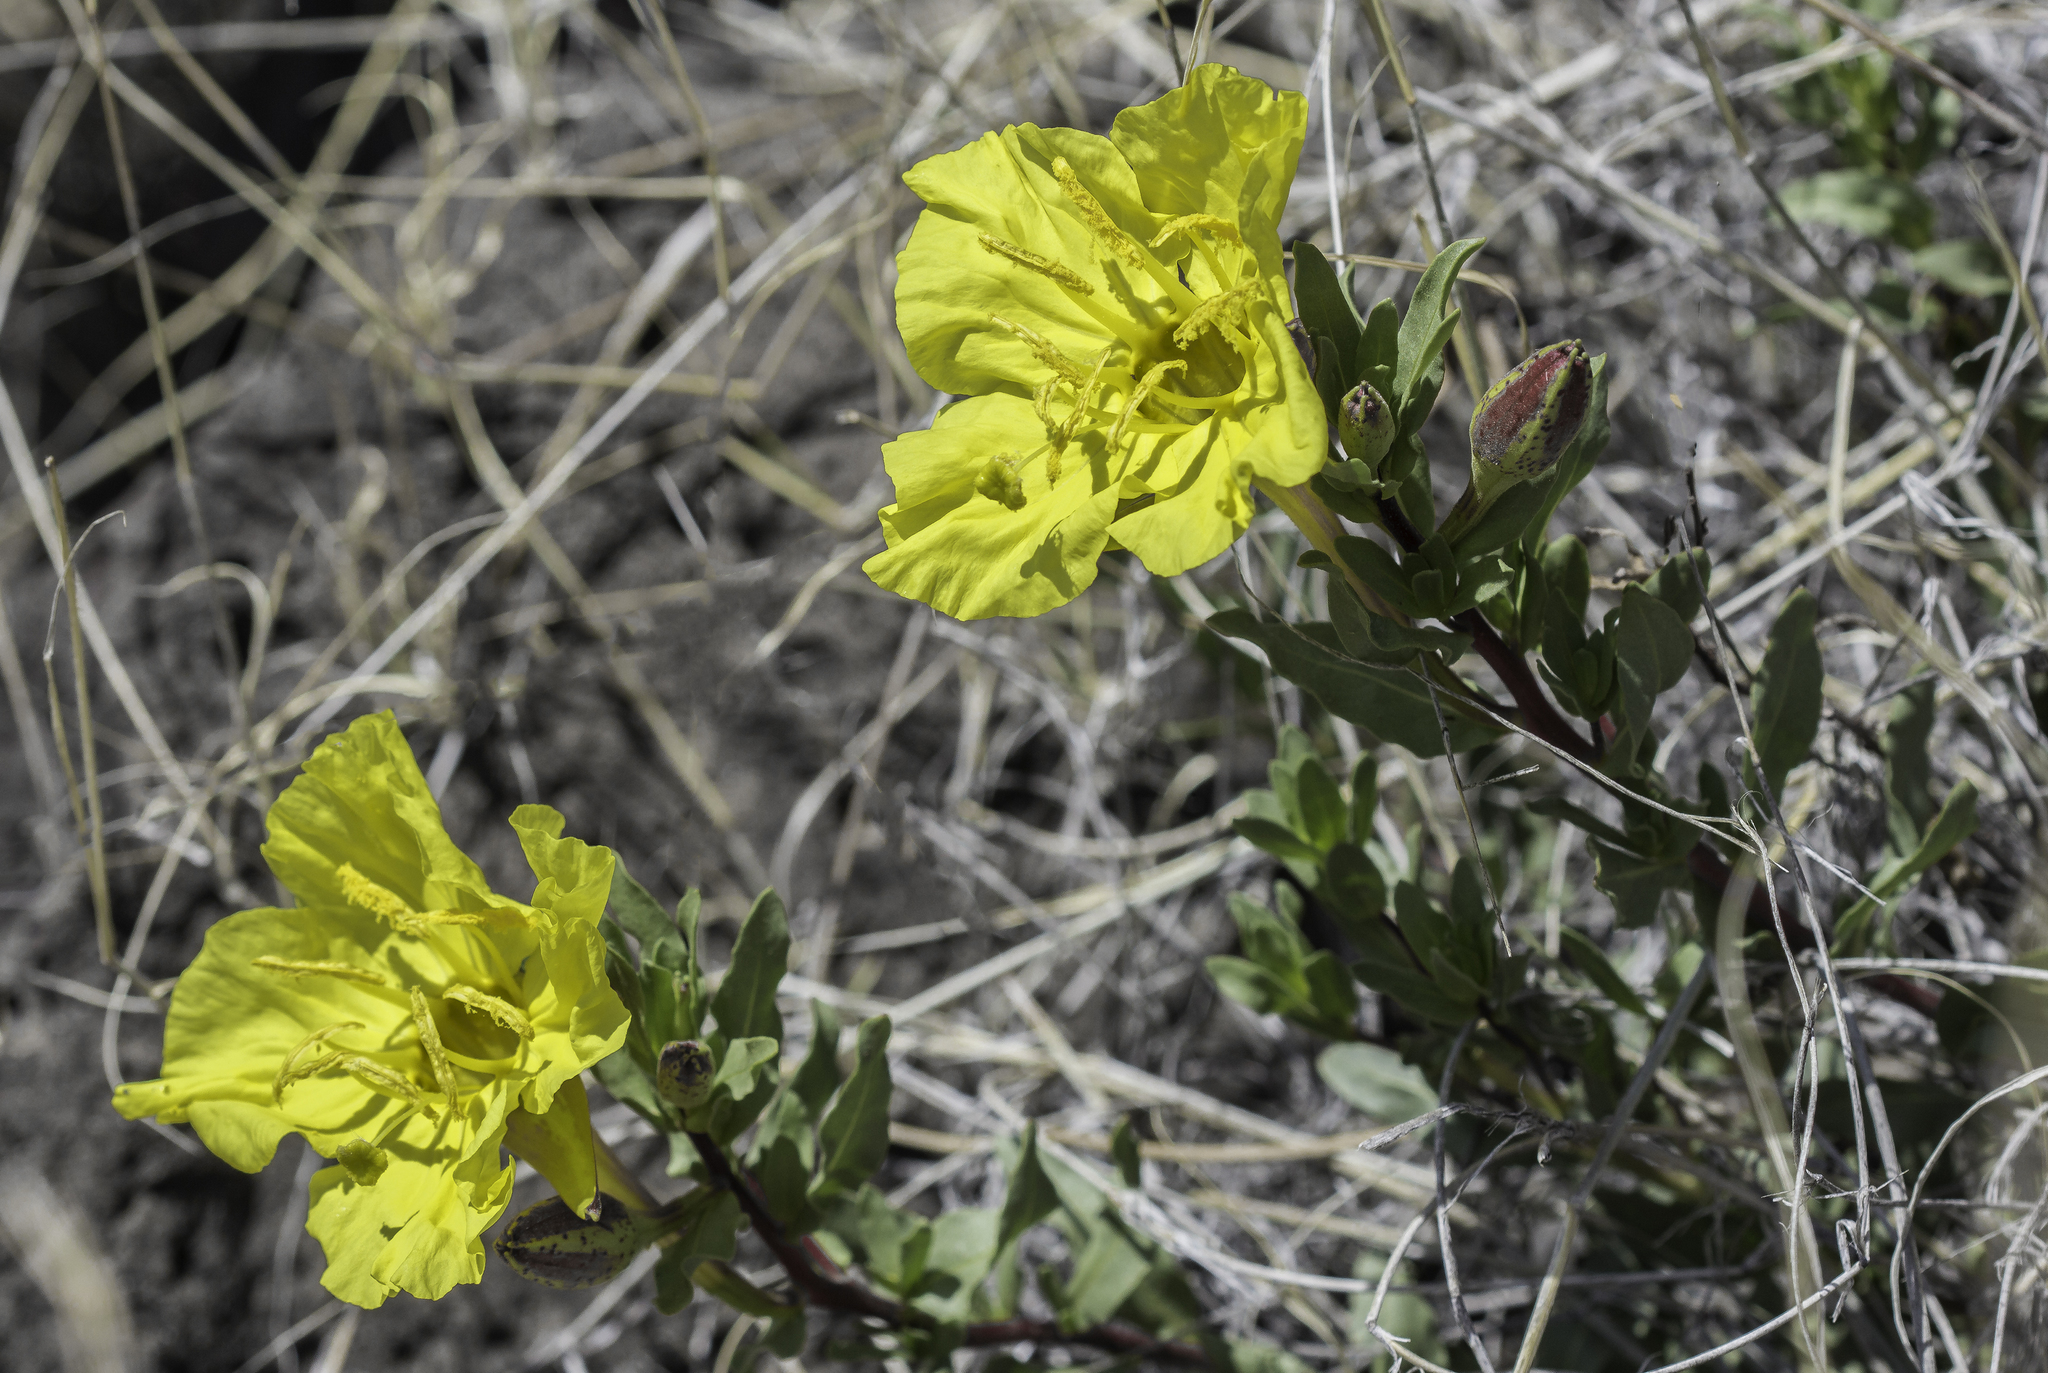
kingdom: Plantae
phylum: Tracheophyta
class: Magnoliopsida
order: Myrtales
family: Onagraceae
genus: Oenothera
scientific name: Oenothera hartwegii
